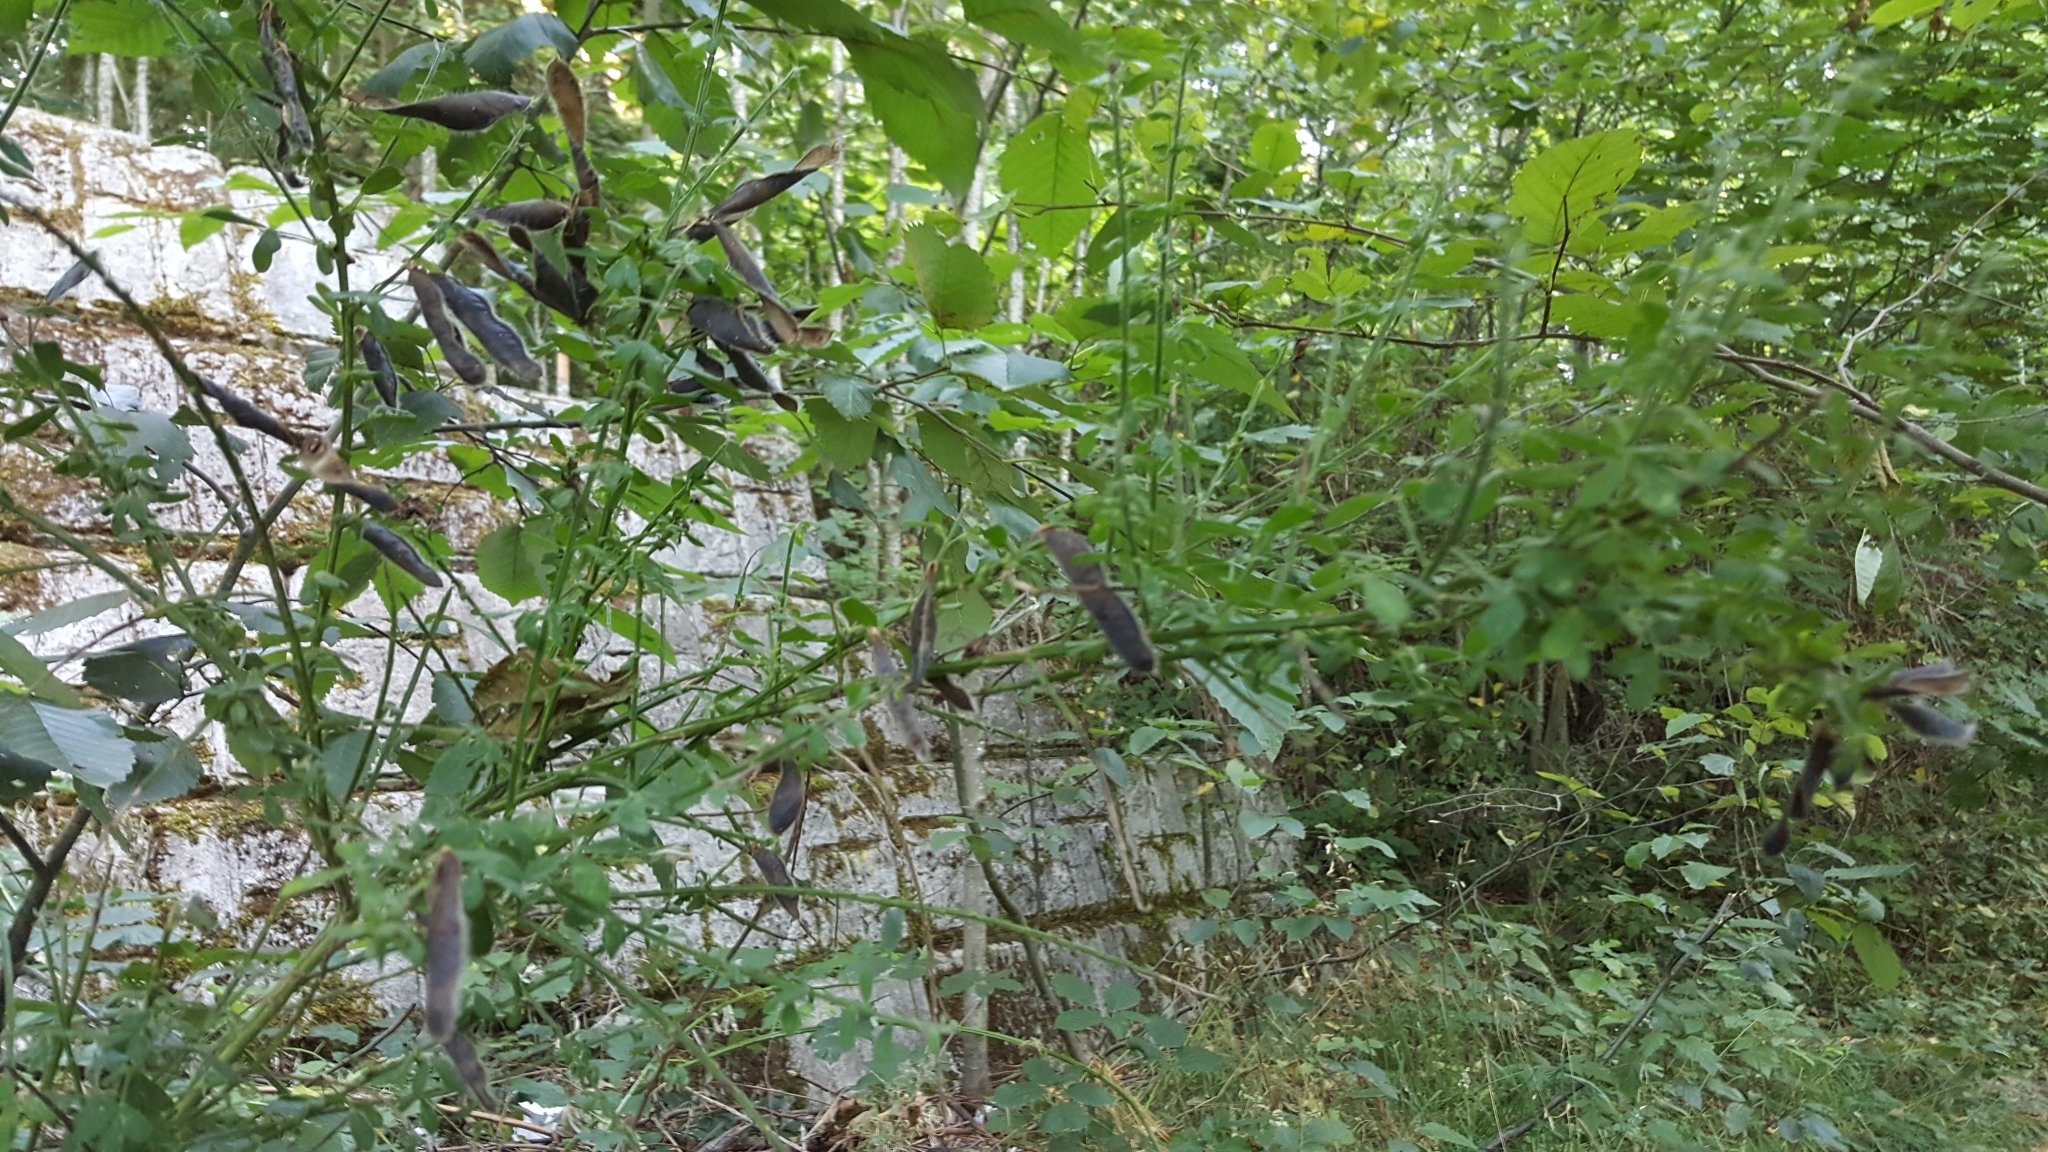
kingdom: Plantae
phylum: Tracheophyta
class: Magnoliopsida
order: Fabales
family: Fabaceae
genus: Cytisus
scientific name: Cytisus scoparius
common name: Scotch broom
